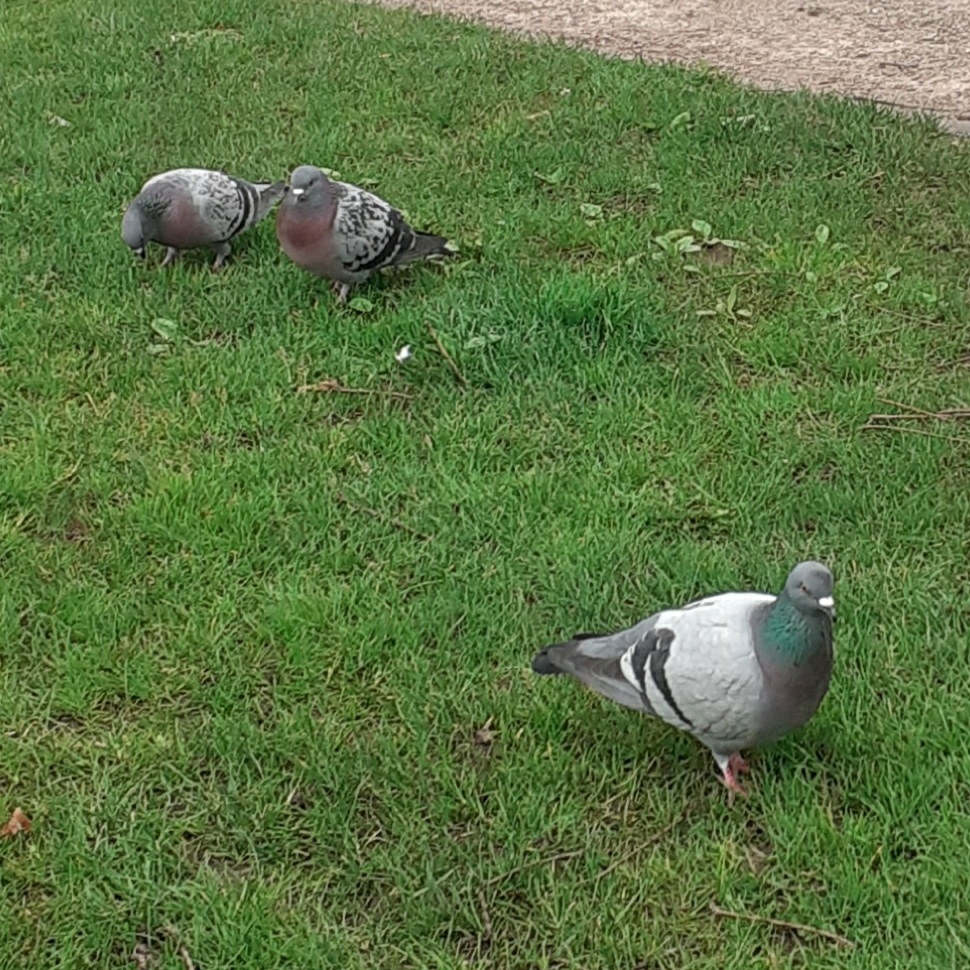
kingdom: Animalia
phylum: Chordata
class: Aves
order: Columbiformes
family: Columbidae
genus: Columba
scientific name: Columba livia
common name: Rock pigeon
